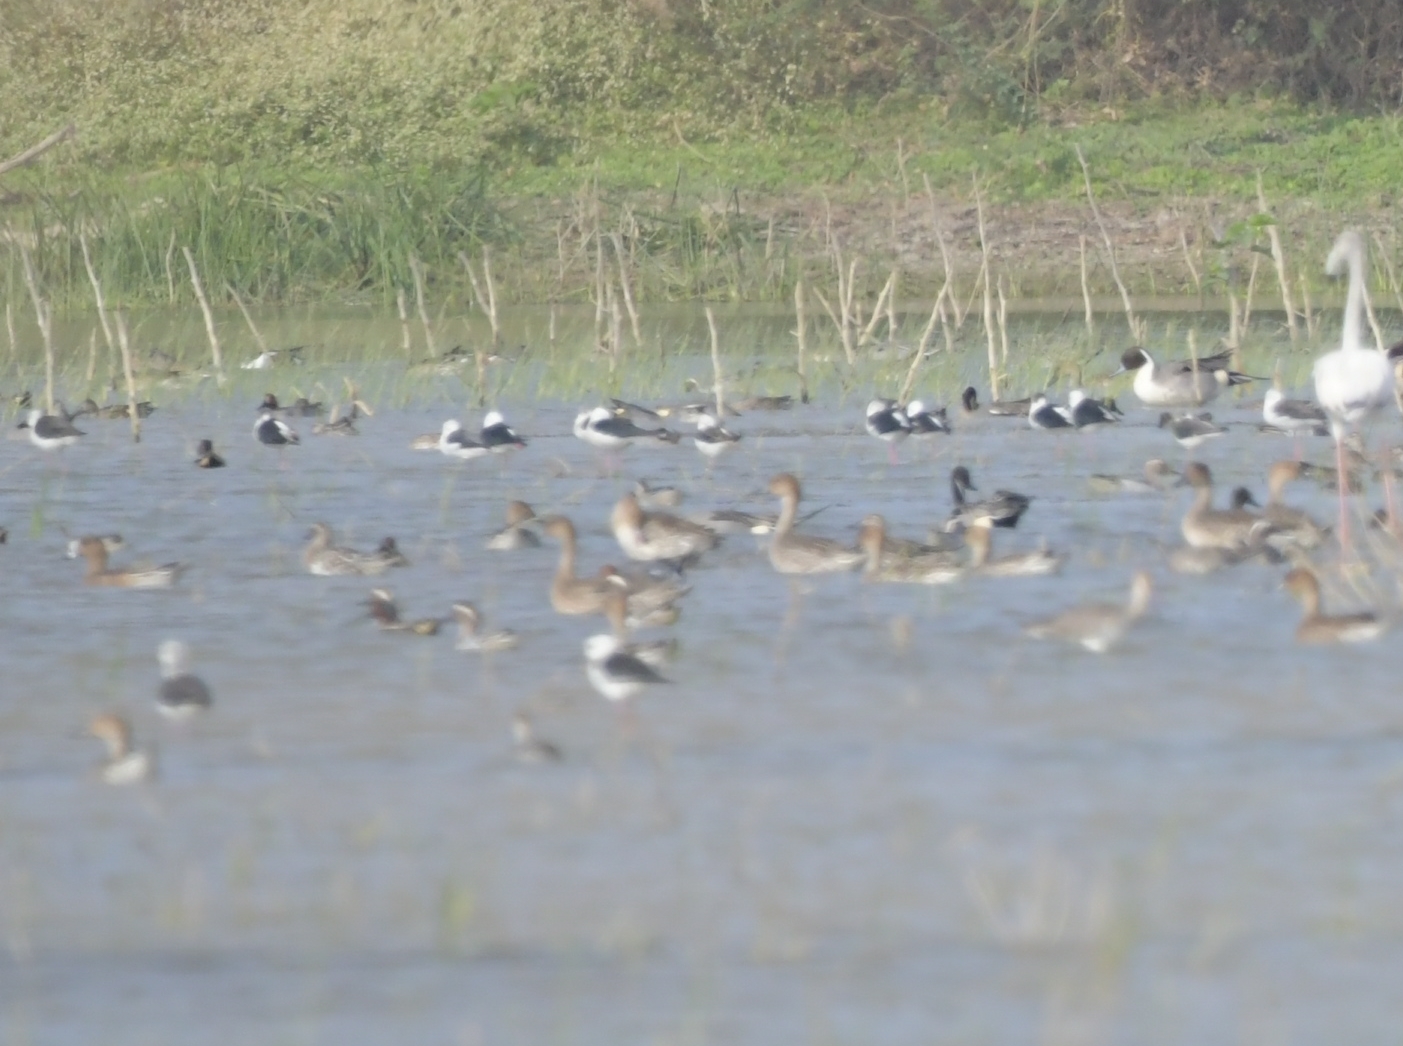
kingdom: Animalia
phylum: Chordata
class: Aves
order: Anseriformes
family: Anatidae
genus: Anas
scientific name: Anas acuta
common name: Northern pintail
